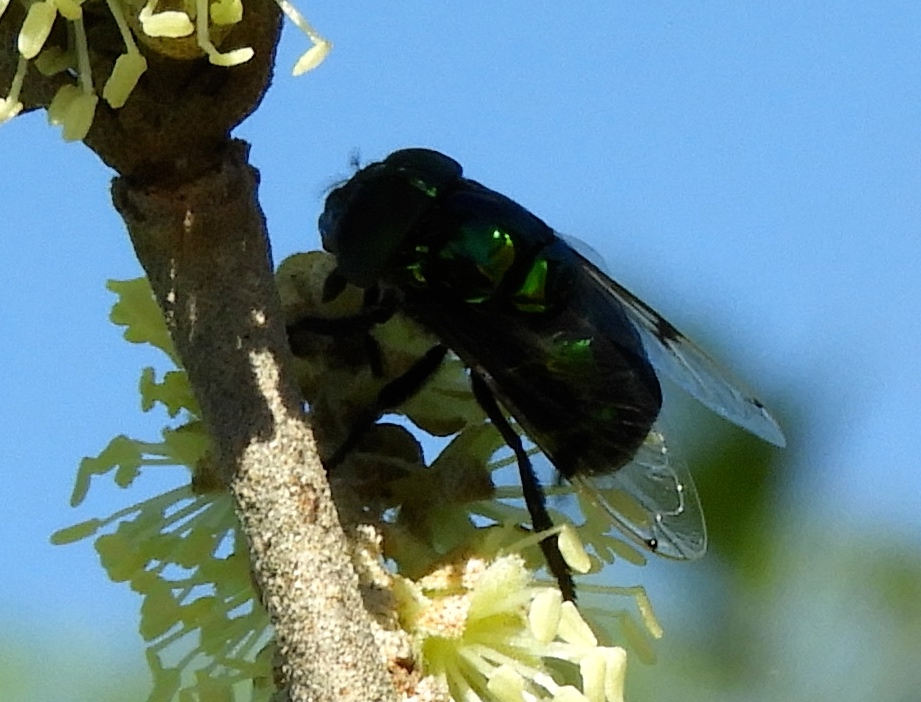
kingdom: Animalia
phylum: Arthropoda
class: Insecta
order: Diptera
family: Syrphidae
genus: Ornidia
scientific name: Ornidia
